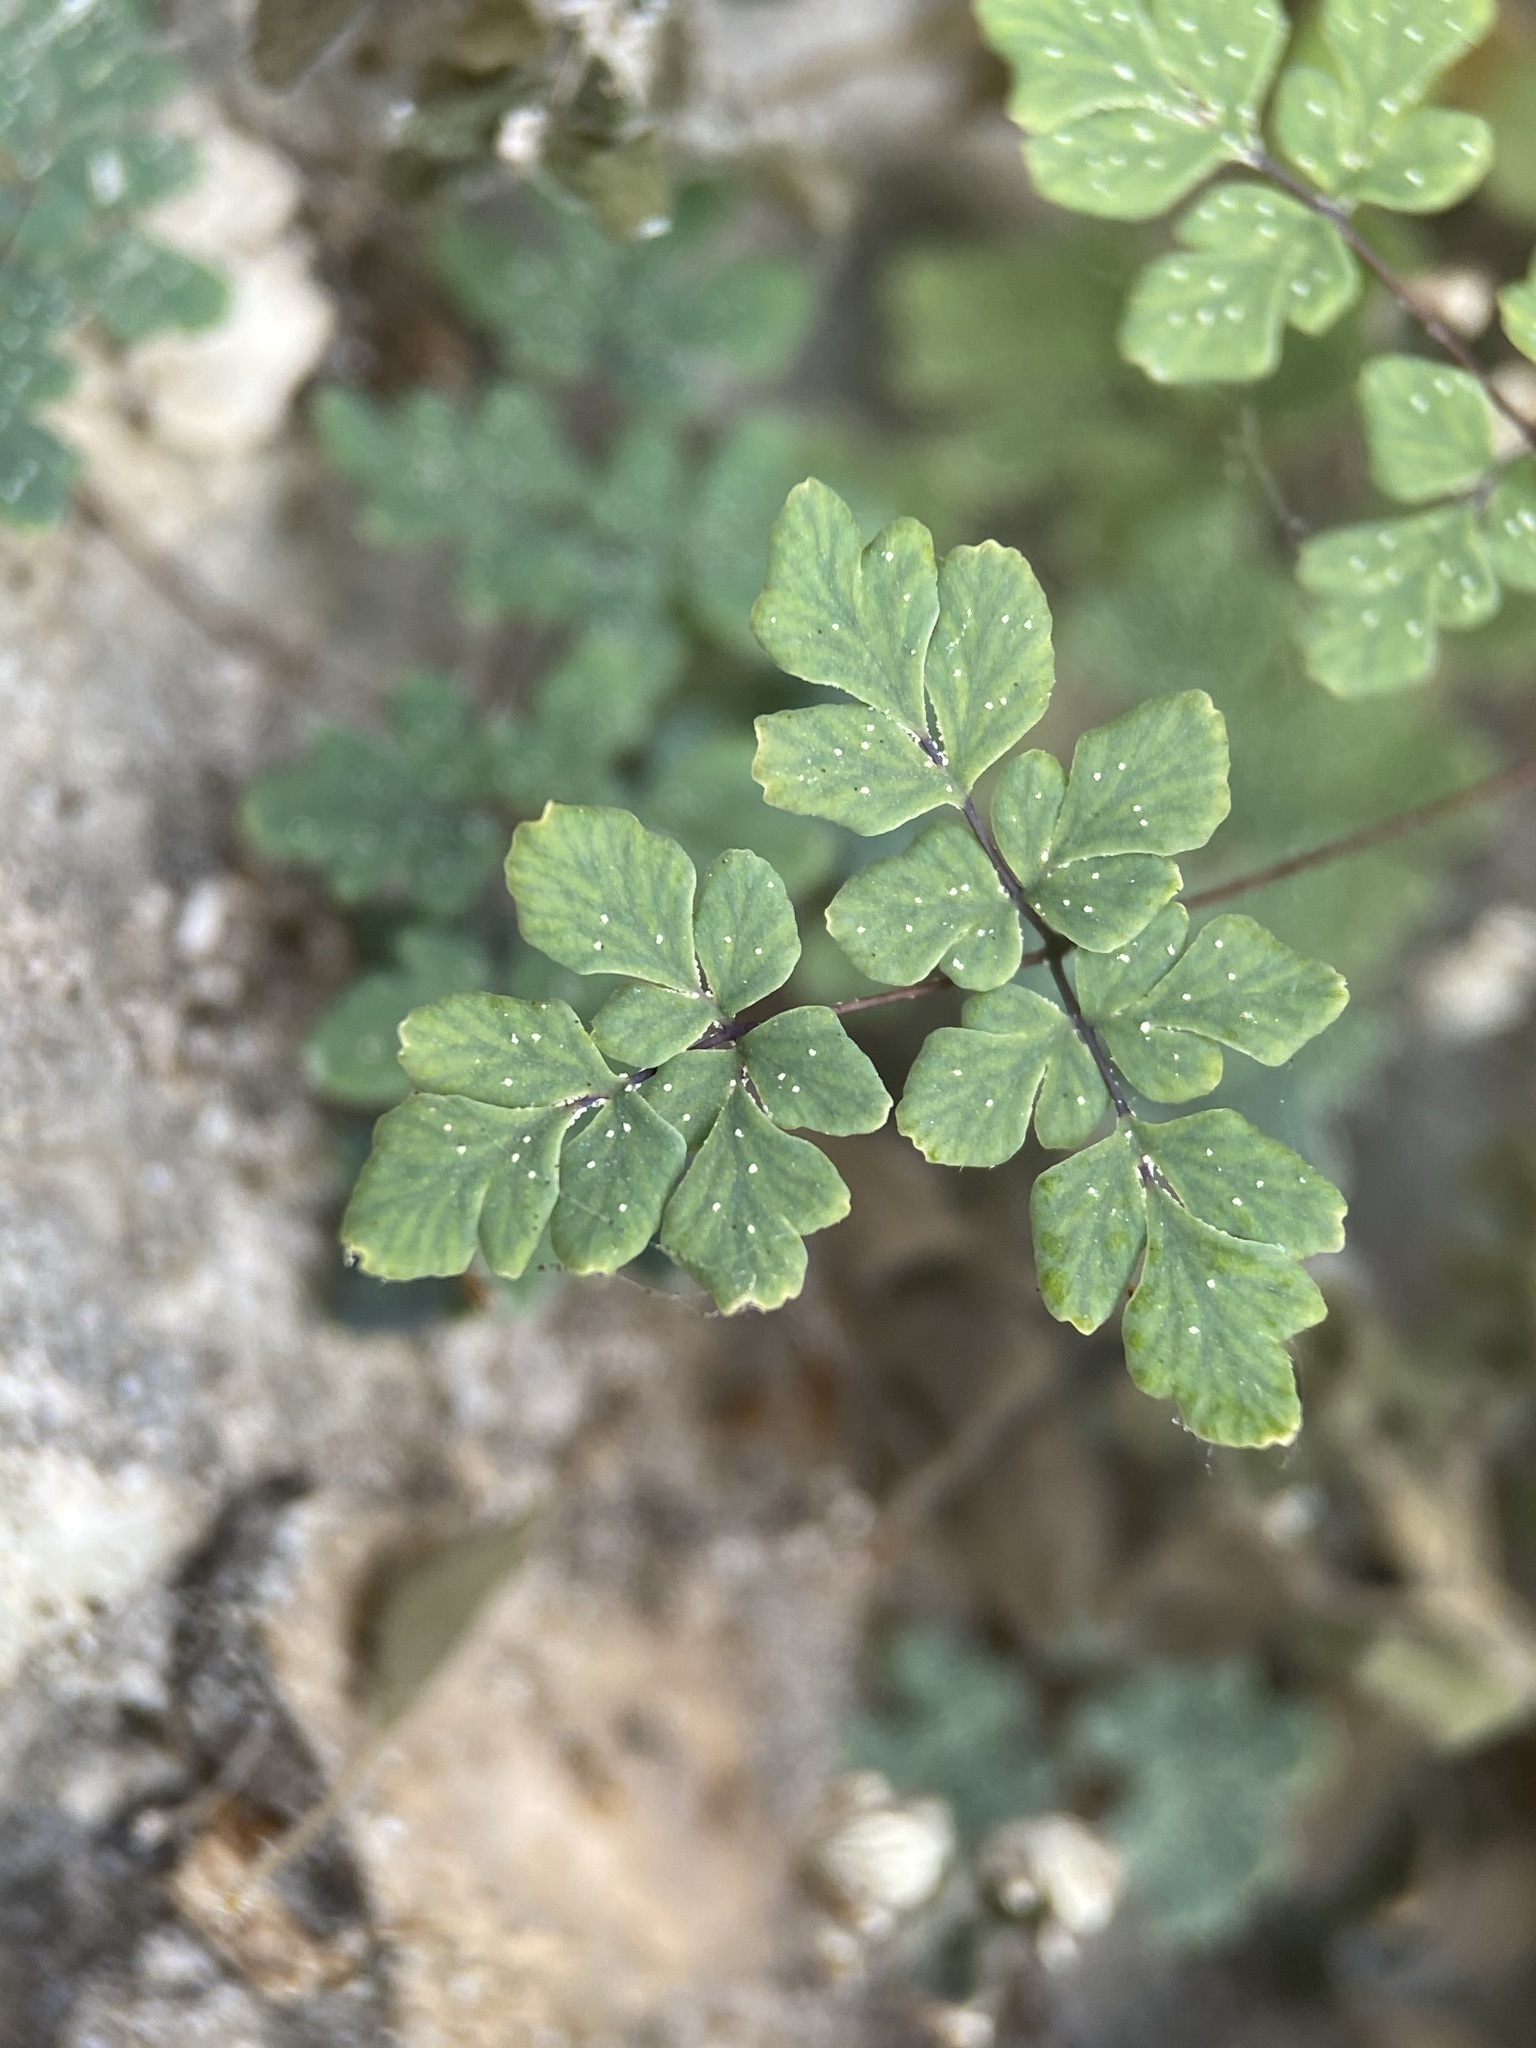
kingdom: Plantae
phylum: Tracheophyta
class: Polypodiopsida
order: Polypodiales
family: Pteridaceae
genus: Argyrochosma
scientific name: Argyrochosma dealbata
